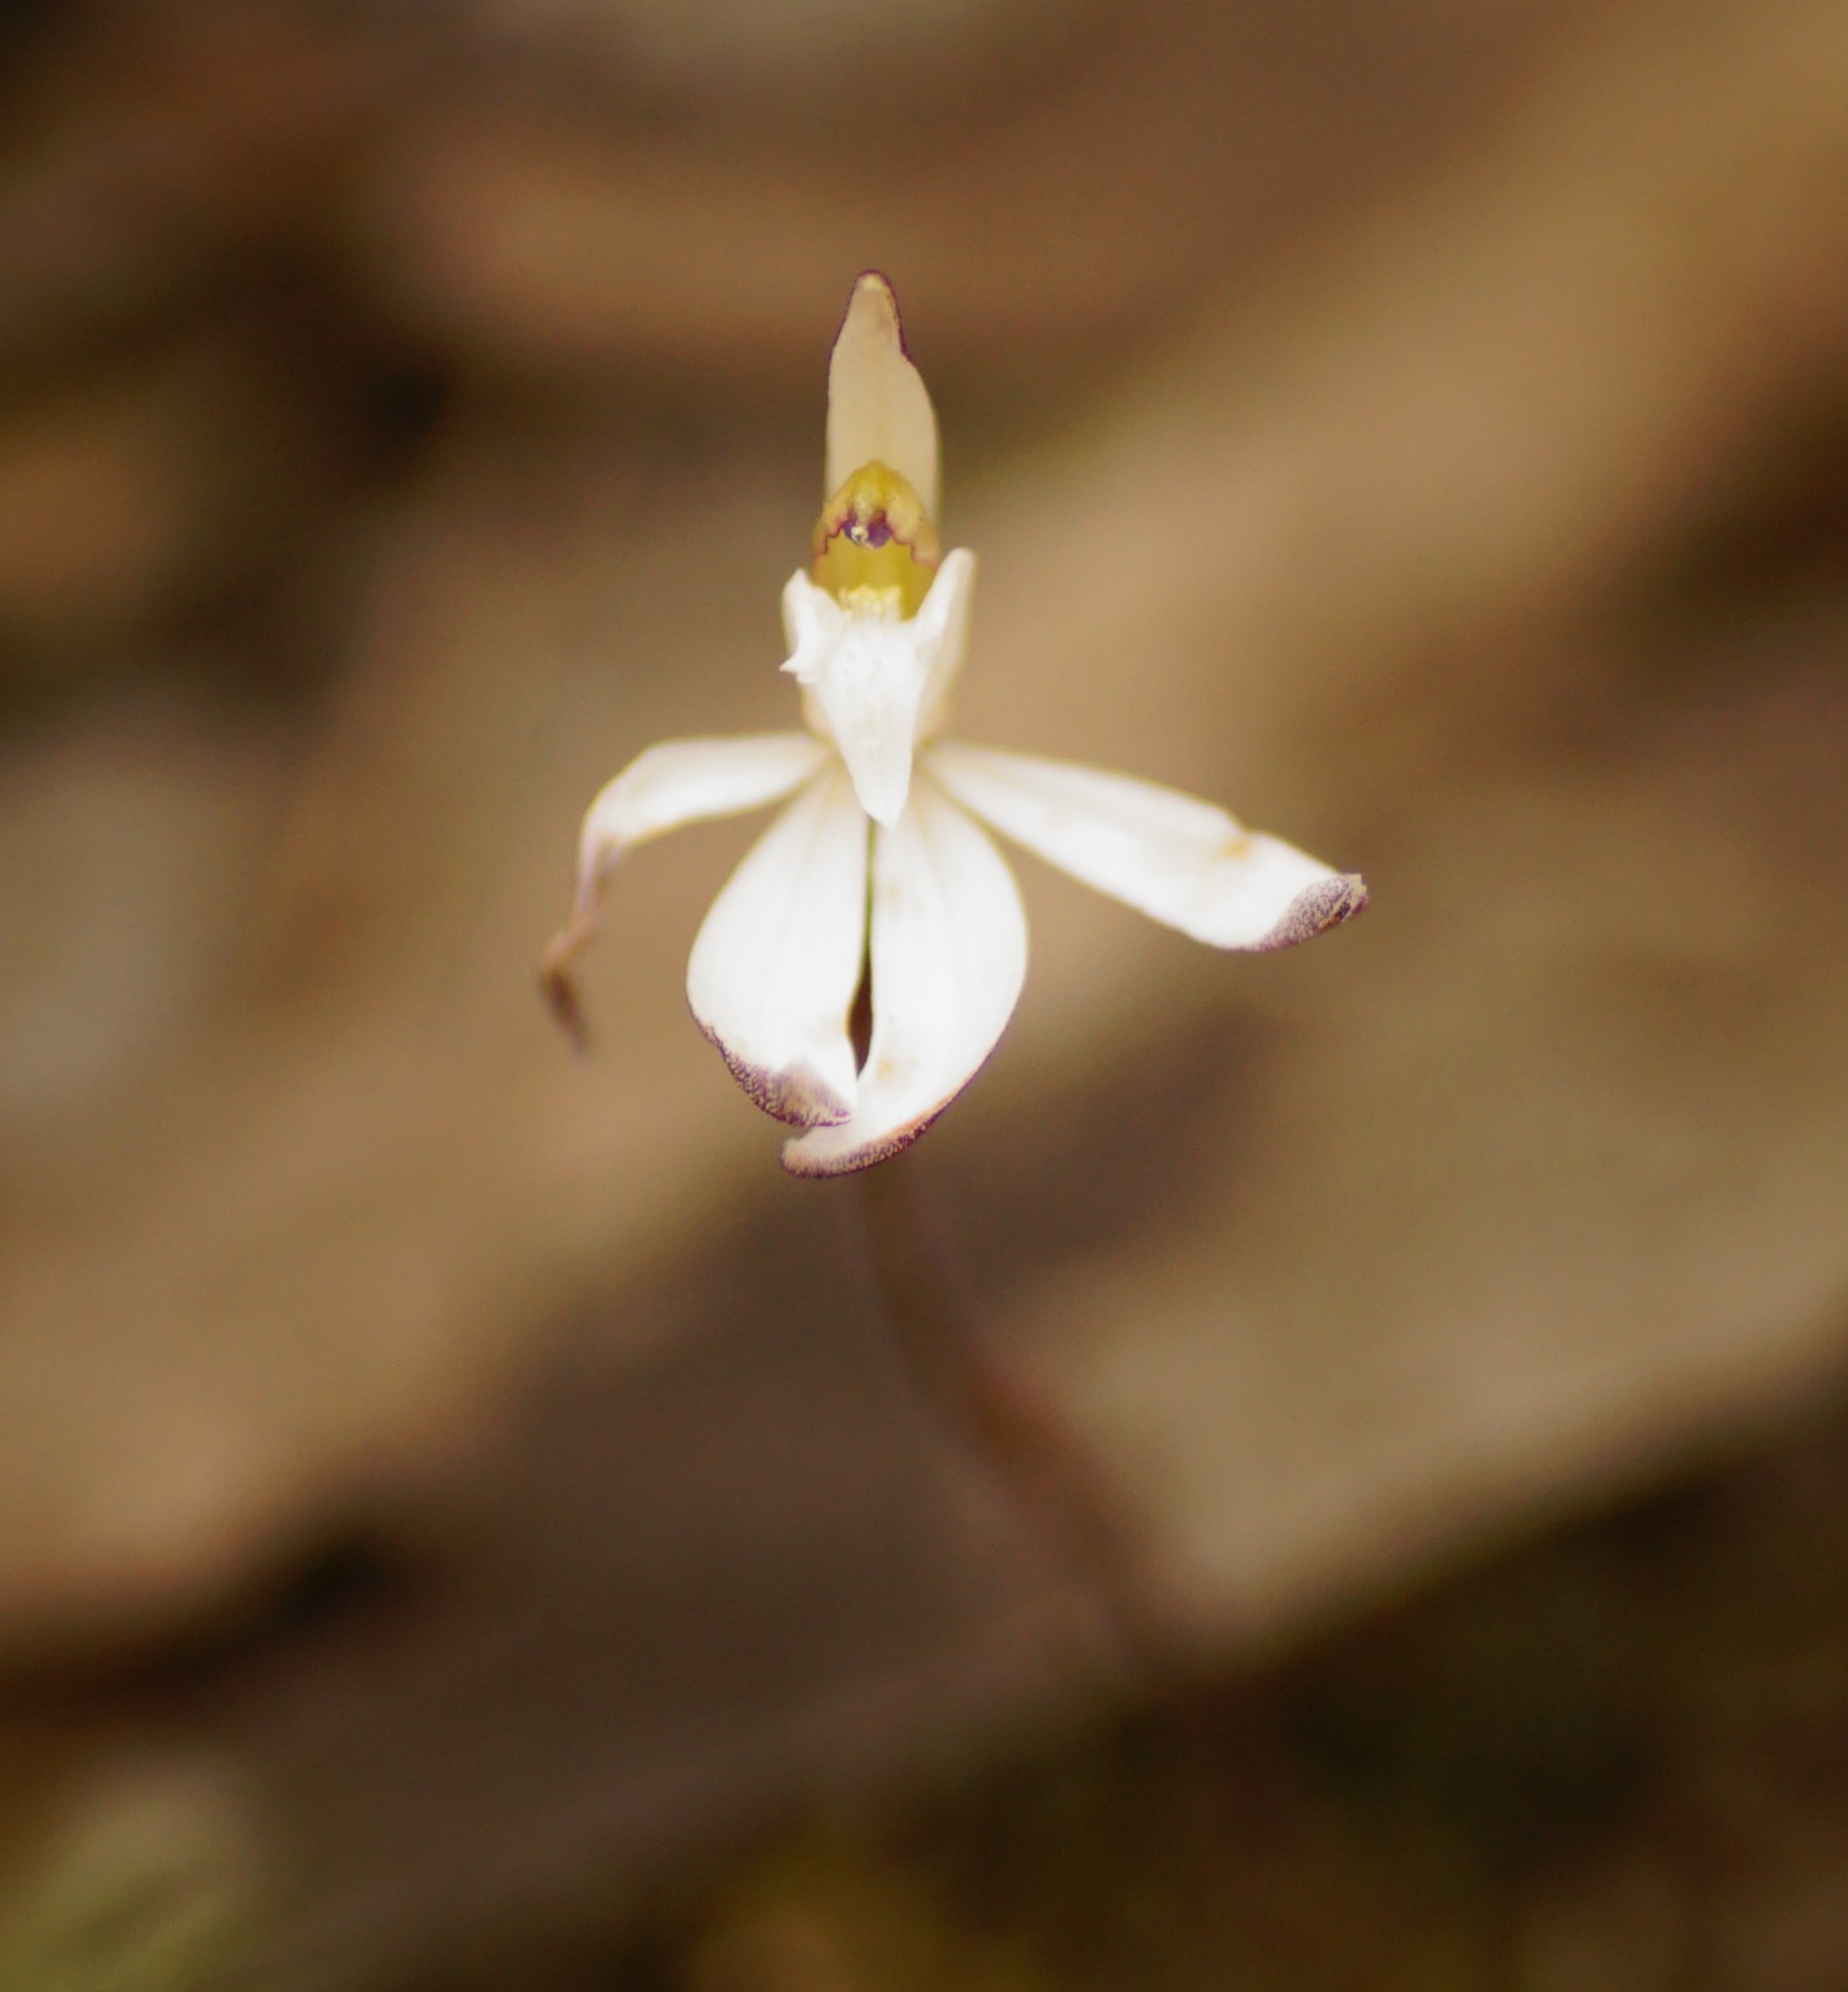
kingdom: Plantae
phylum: Tracheophyta
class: Liliopsida
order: Asparagales
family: Orchidaceae
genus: Caladenia
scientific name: Caladenia caerulea
